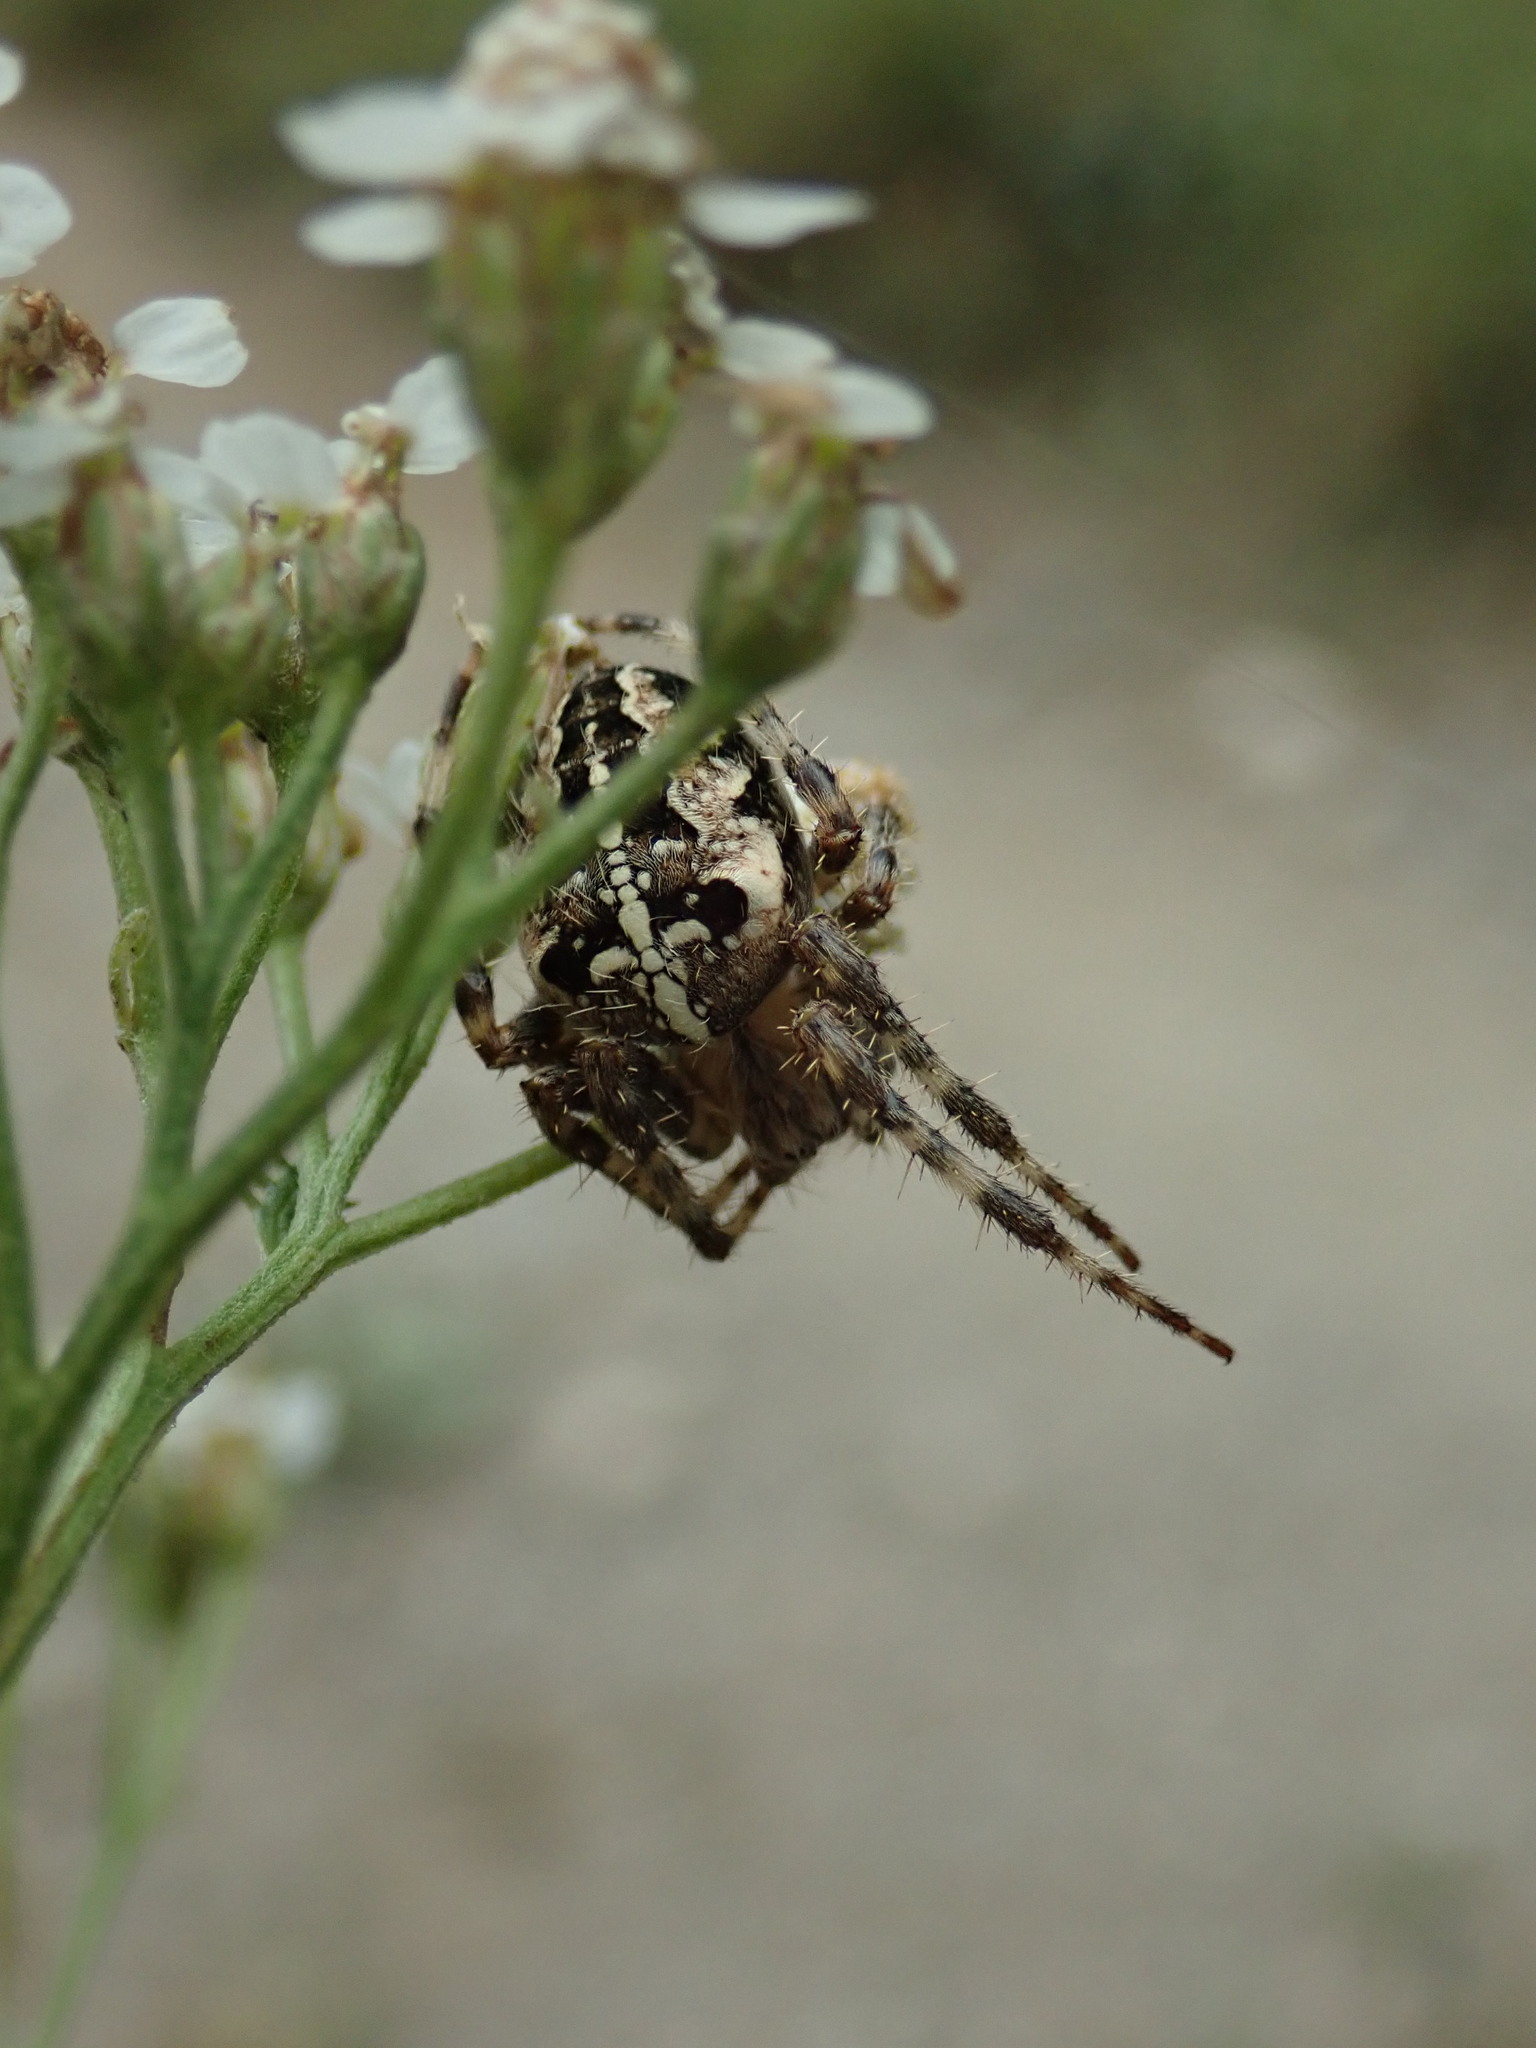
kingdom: Animalia
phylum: Arthropoda
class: Arachnida
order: Araneae
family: Araneidae
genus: Araneus
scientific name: Araneus diadematus
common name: Cross orbweaver
